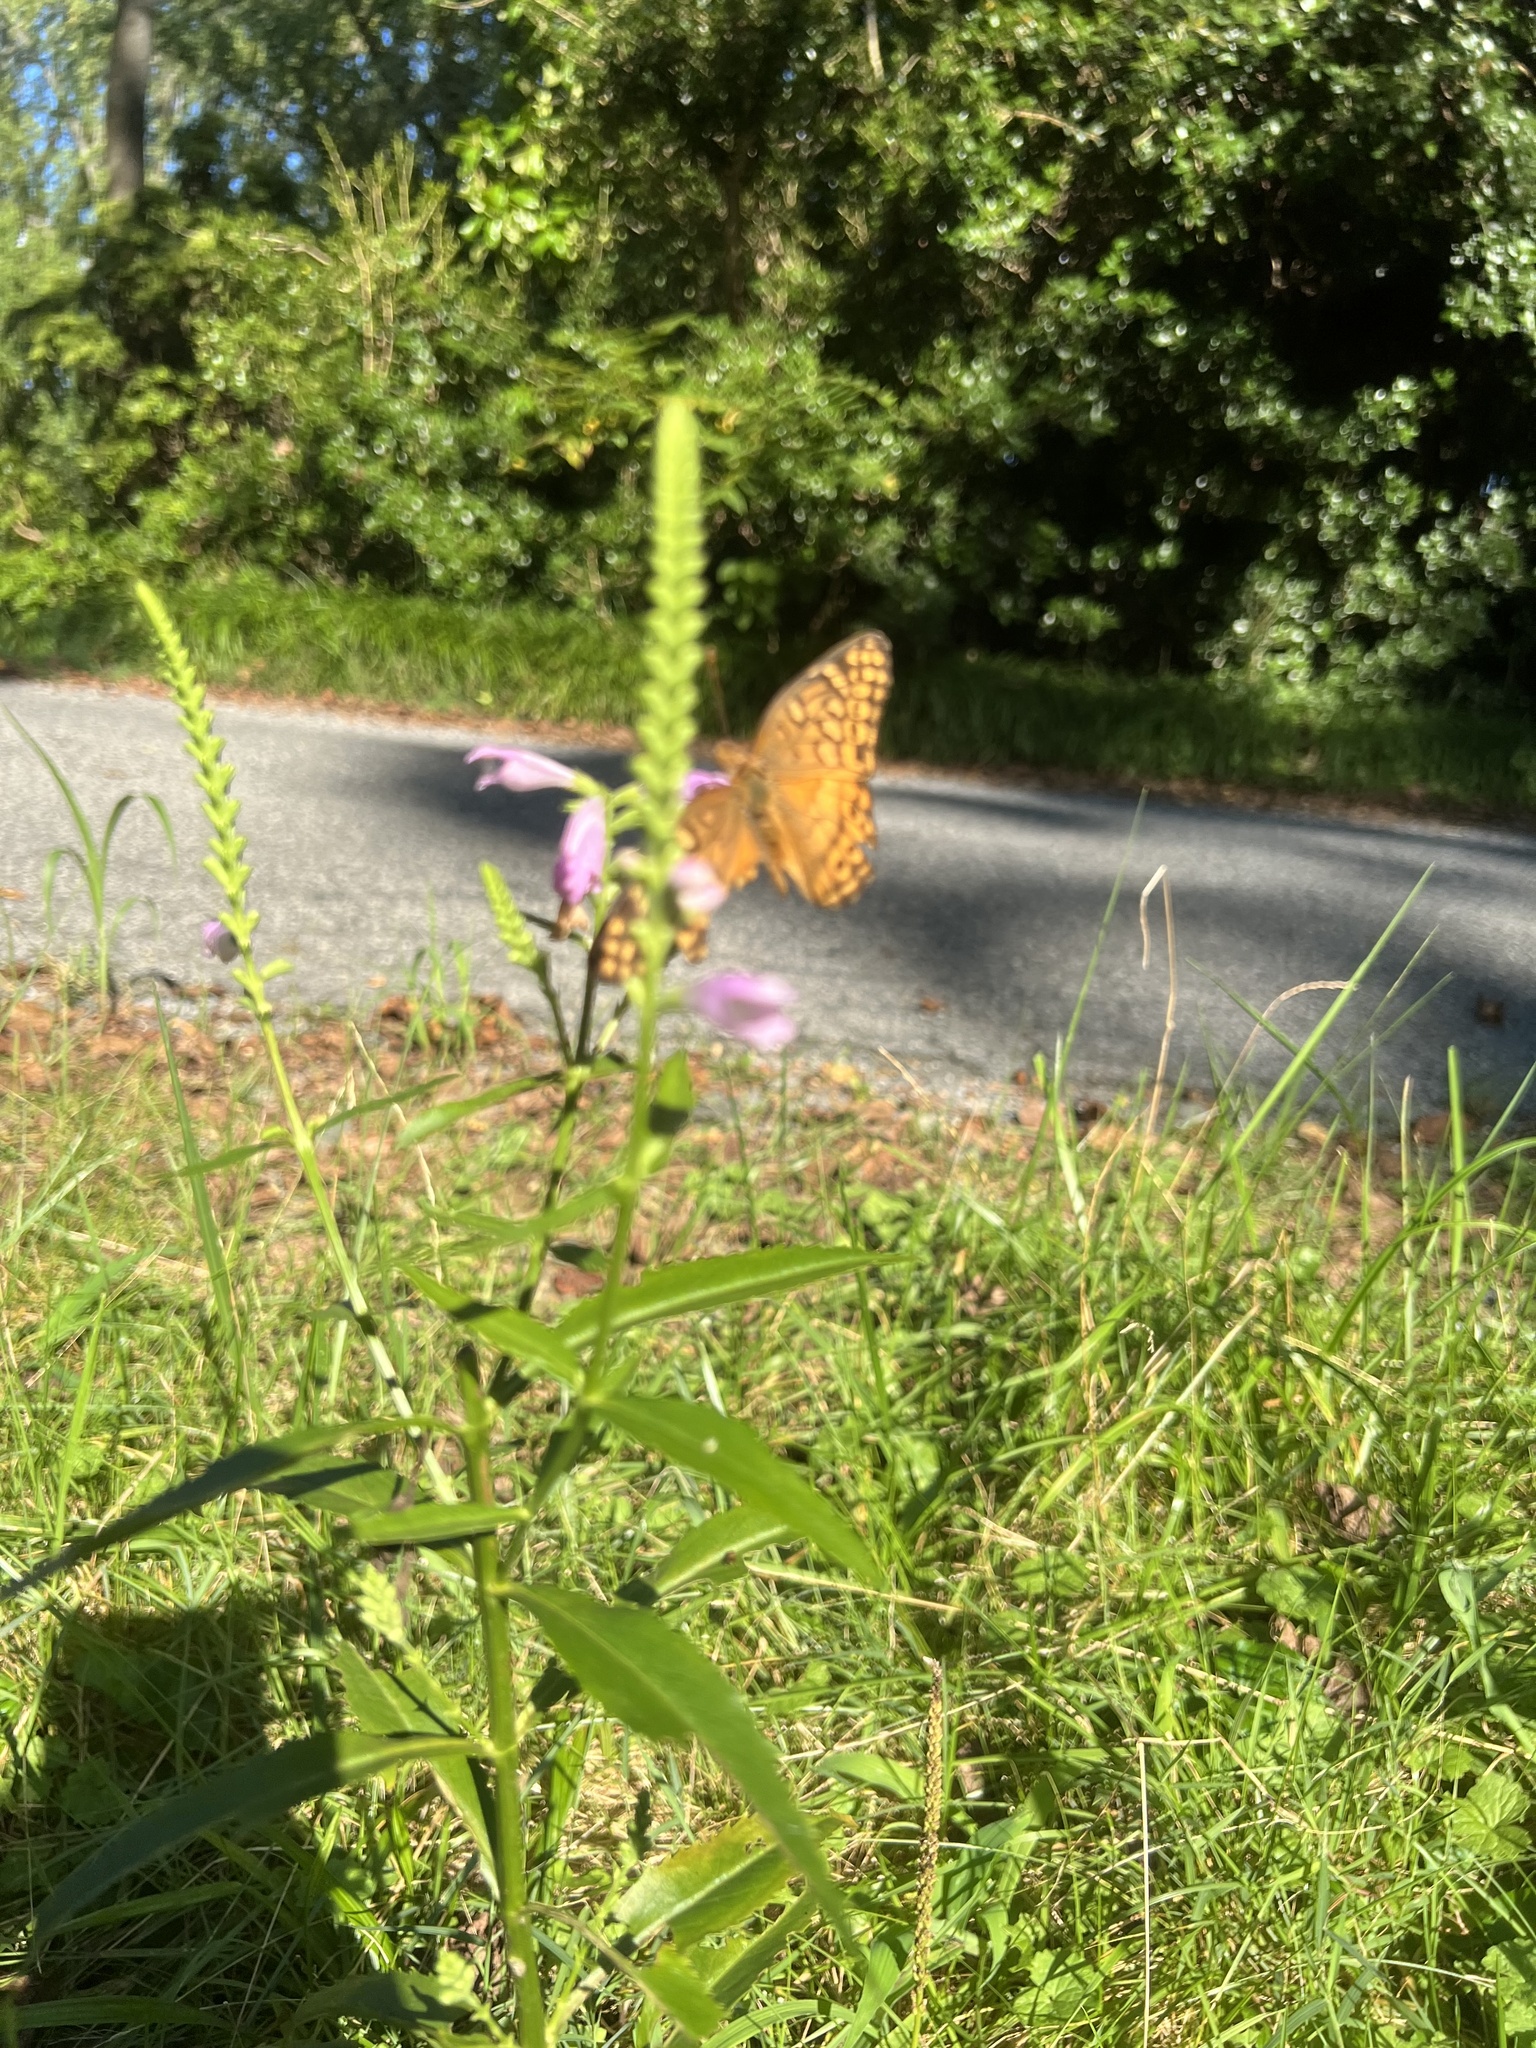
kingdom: Animalia
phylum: Arthropoda
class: Insecta
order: Lepidoptera
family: Nymphalidae
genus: Euptoieta
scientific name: Euptoieta claudia
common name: Variegated fritillary
